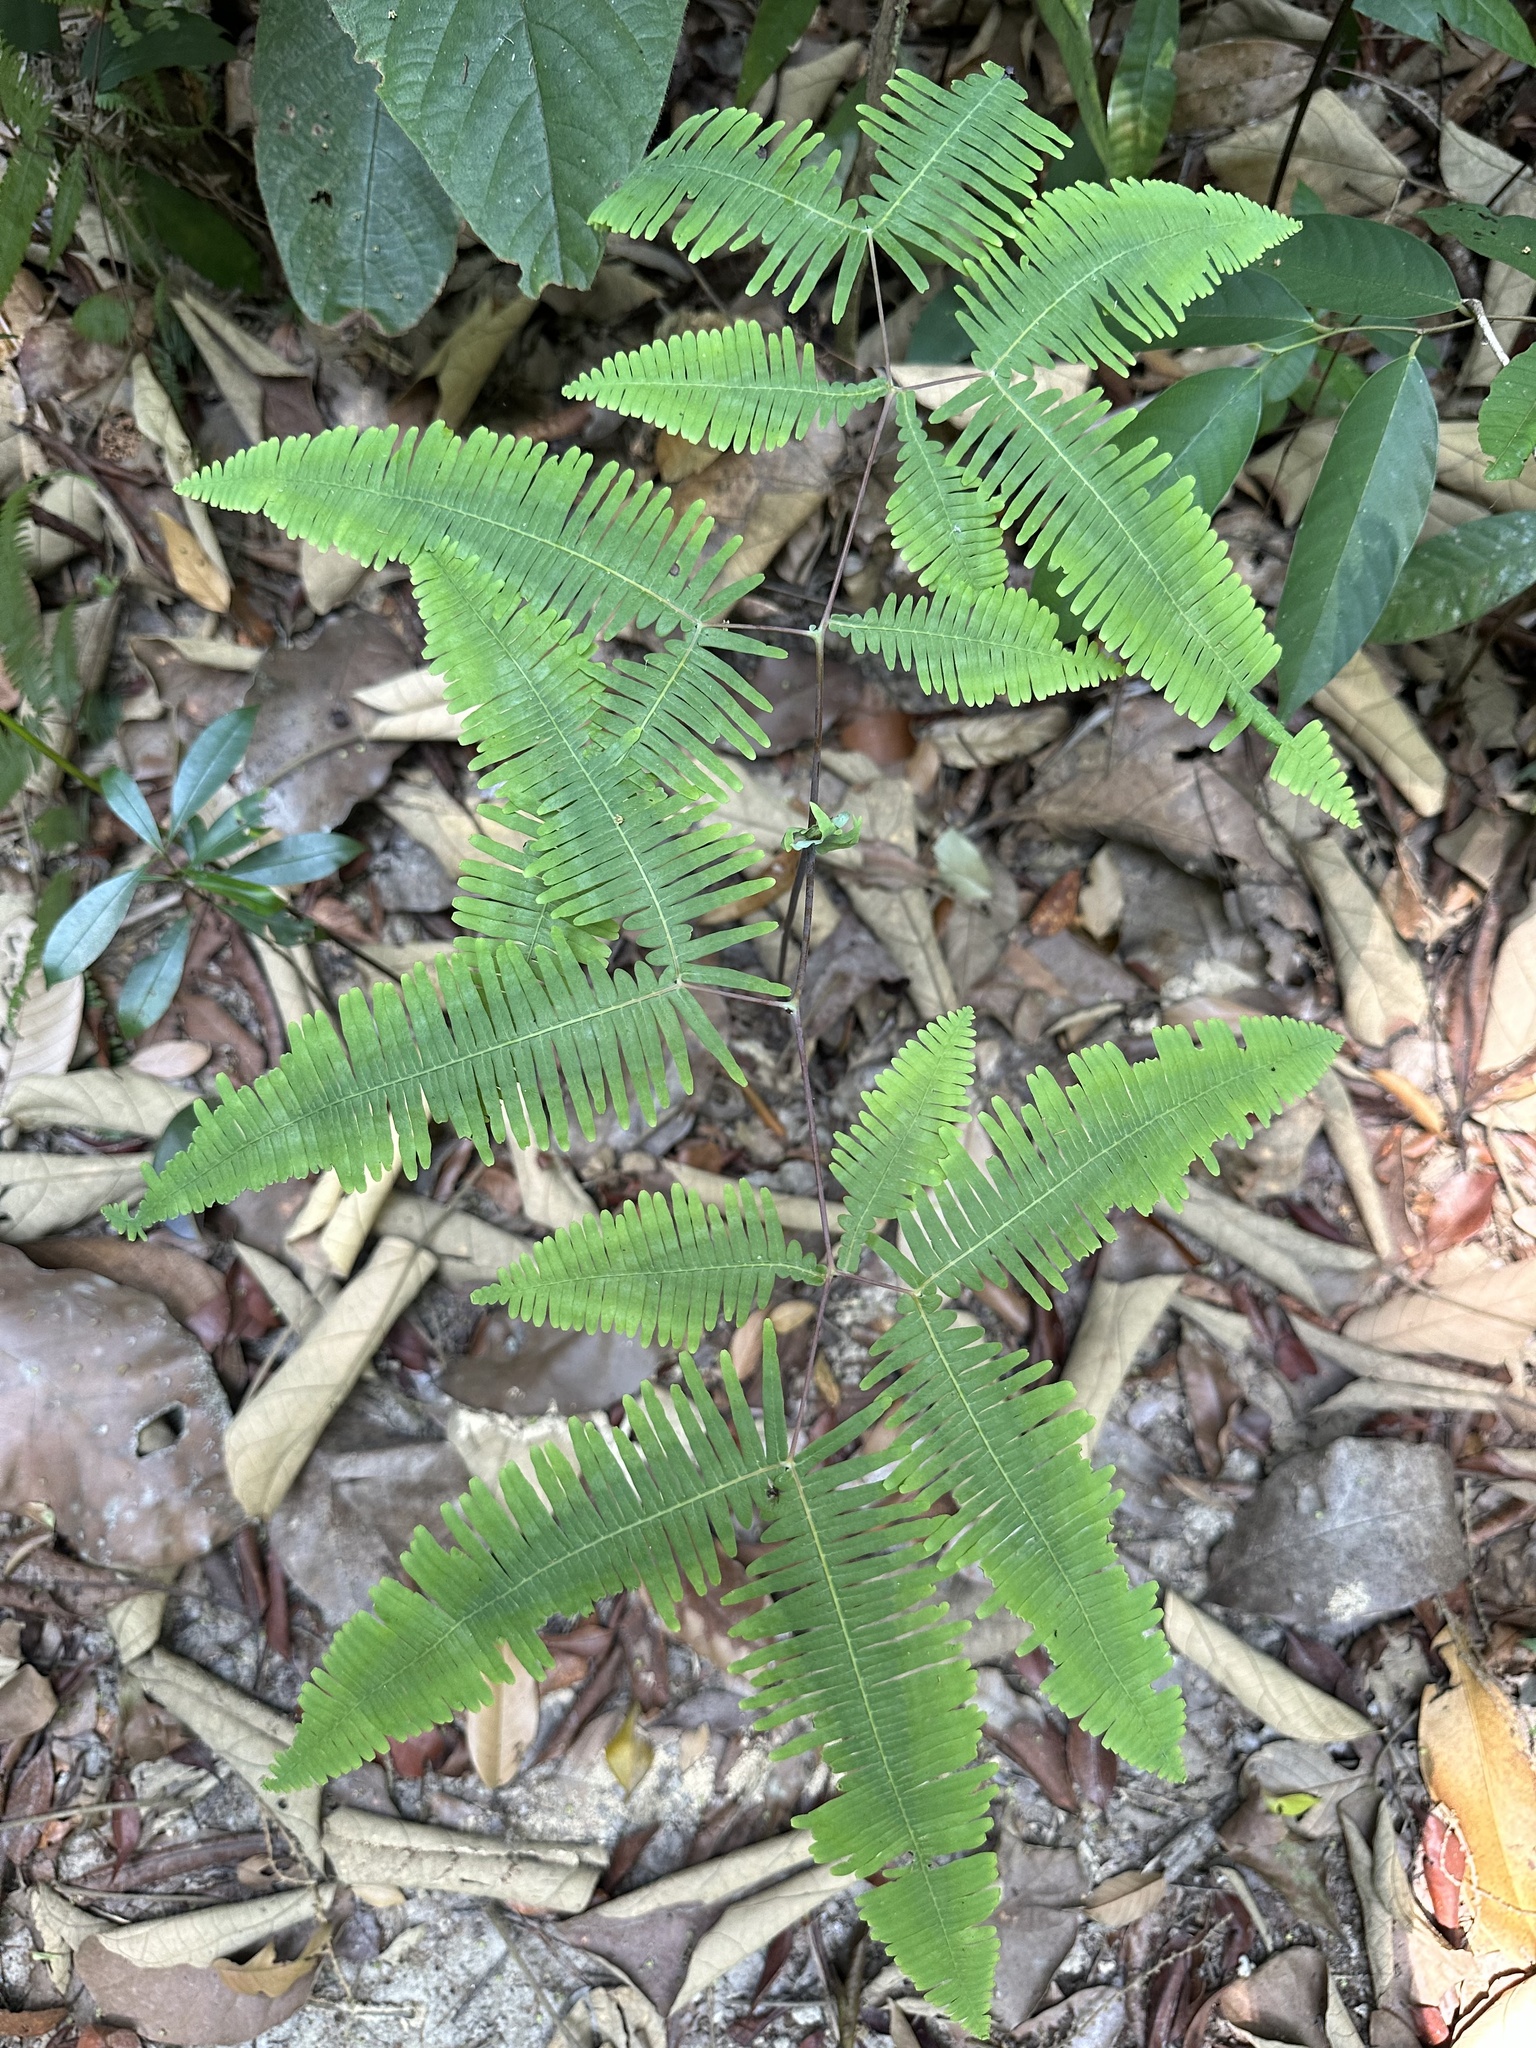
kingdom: Plantae
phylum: Tracheophyta
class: Polypodiopsida
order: Gleicheniales
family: Gleicheniaceae
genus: Dicranopteris
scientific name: Dicranopteris subpectinata
